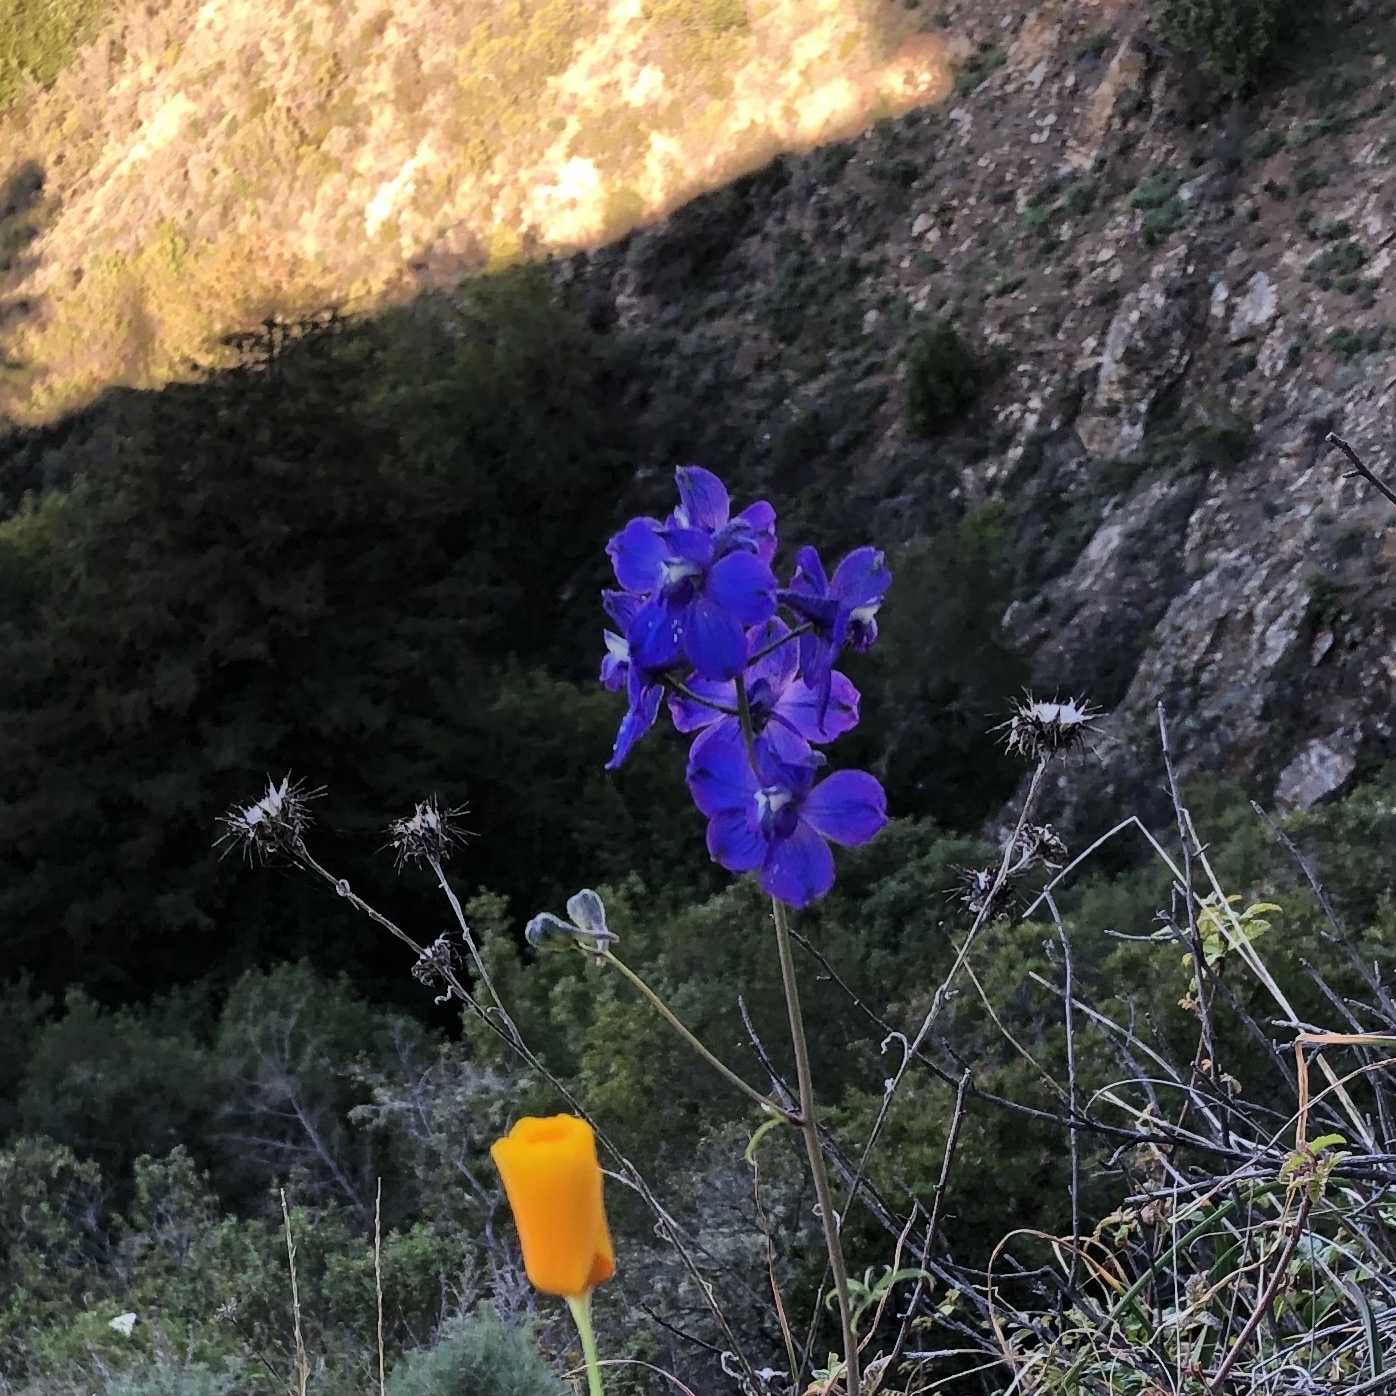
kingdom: Plantae
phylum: Tracheophyta
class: Magnoliopsida
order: Ranunculales
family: Ranunculaceae
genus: Delphinium
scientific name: Delphinium hutchinsoniae
